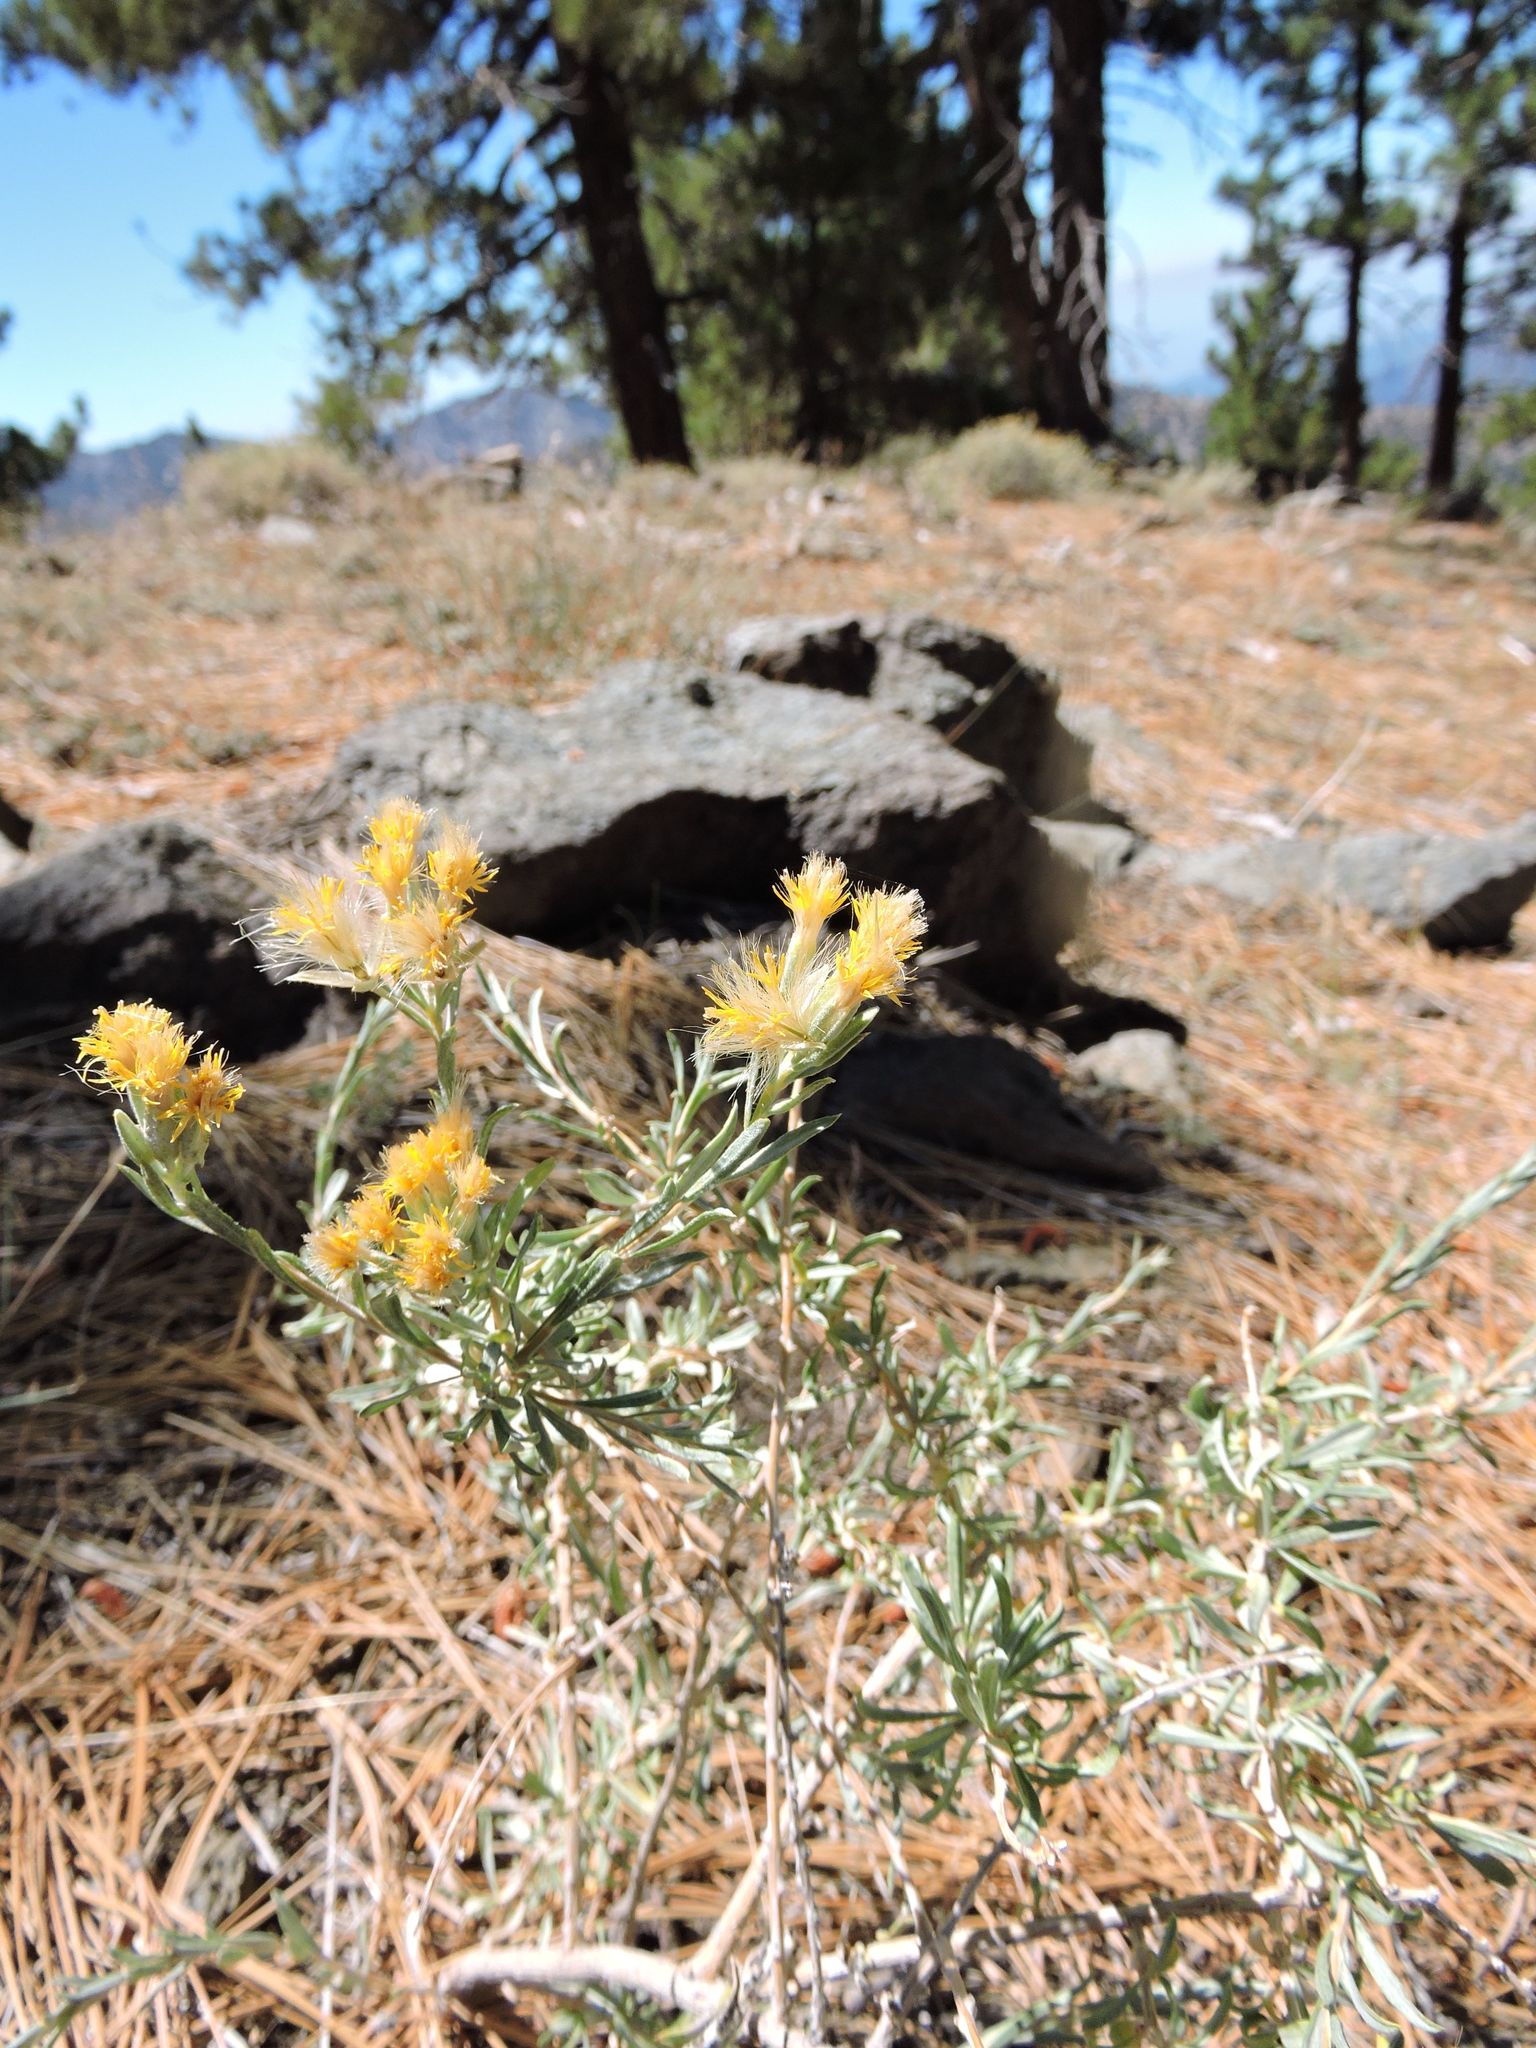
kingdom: Plantae
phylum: Tracheophyta
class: Magnoliopsida
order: Asterales
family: Asteraceae
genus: Ericameria
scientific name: Ericameria nauseosa
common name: Rubber rabbitbrush
